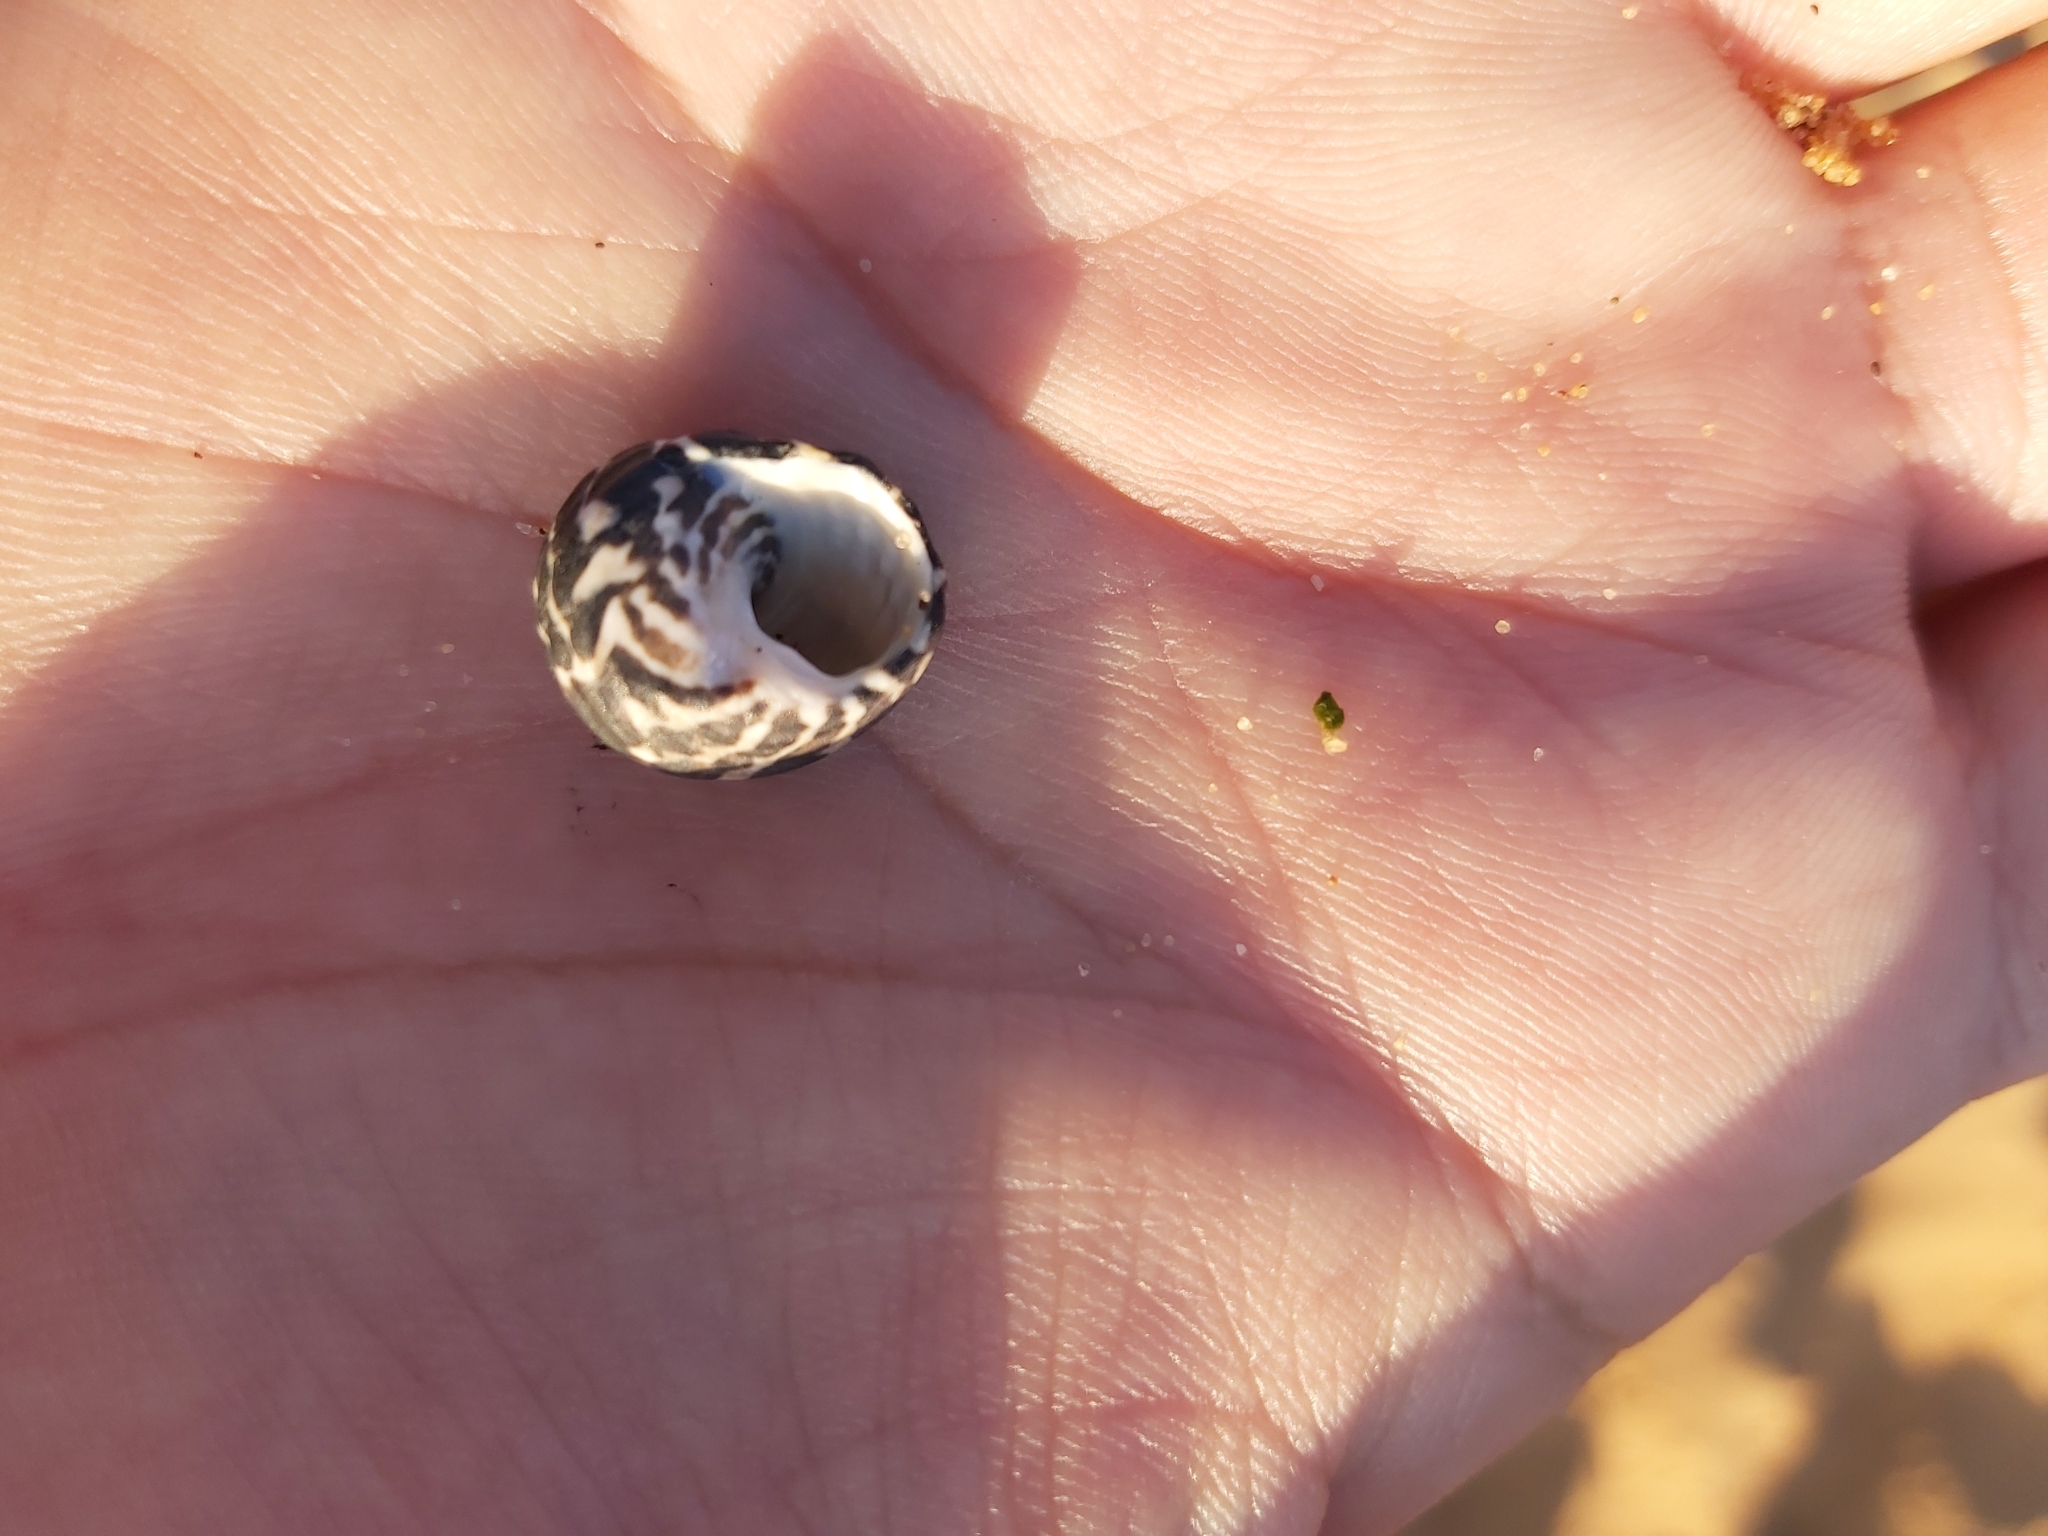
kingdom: Animalia
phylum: Mollusca
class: Gastropoda
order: Trochida
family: Trochidae
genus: Austrocochlea
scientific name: Austrocochlea porcata
